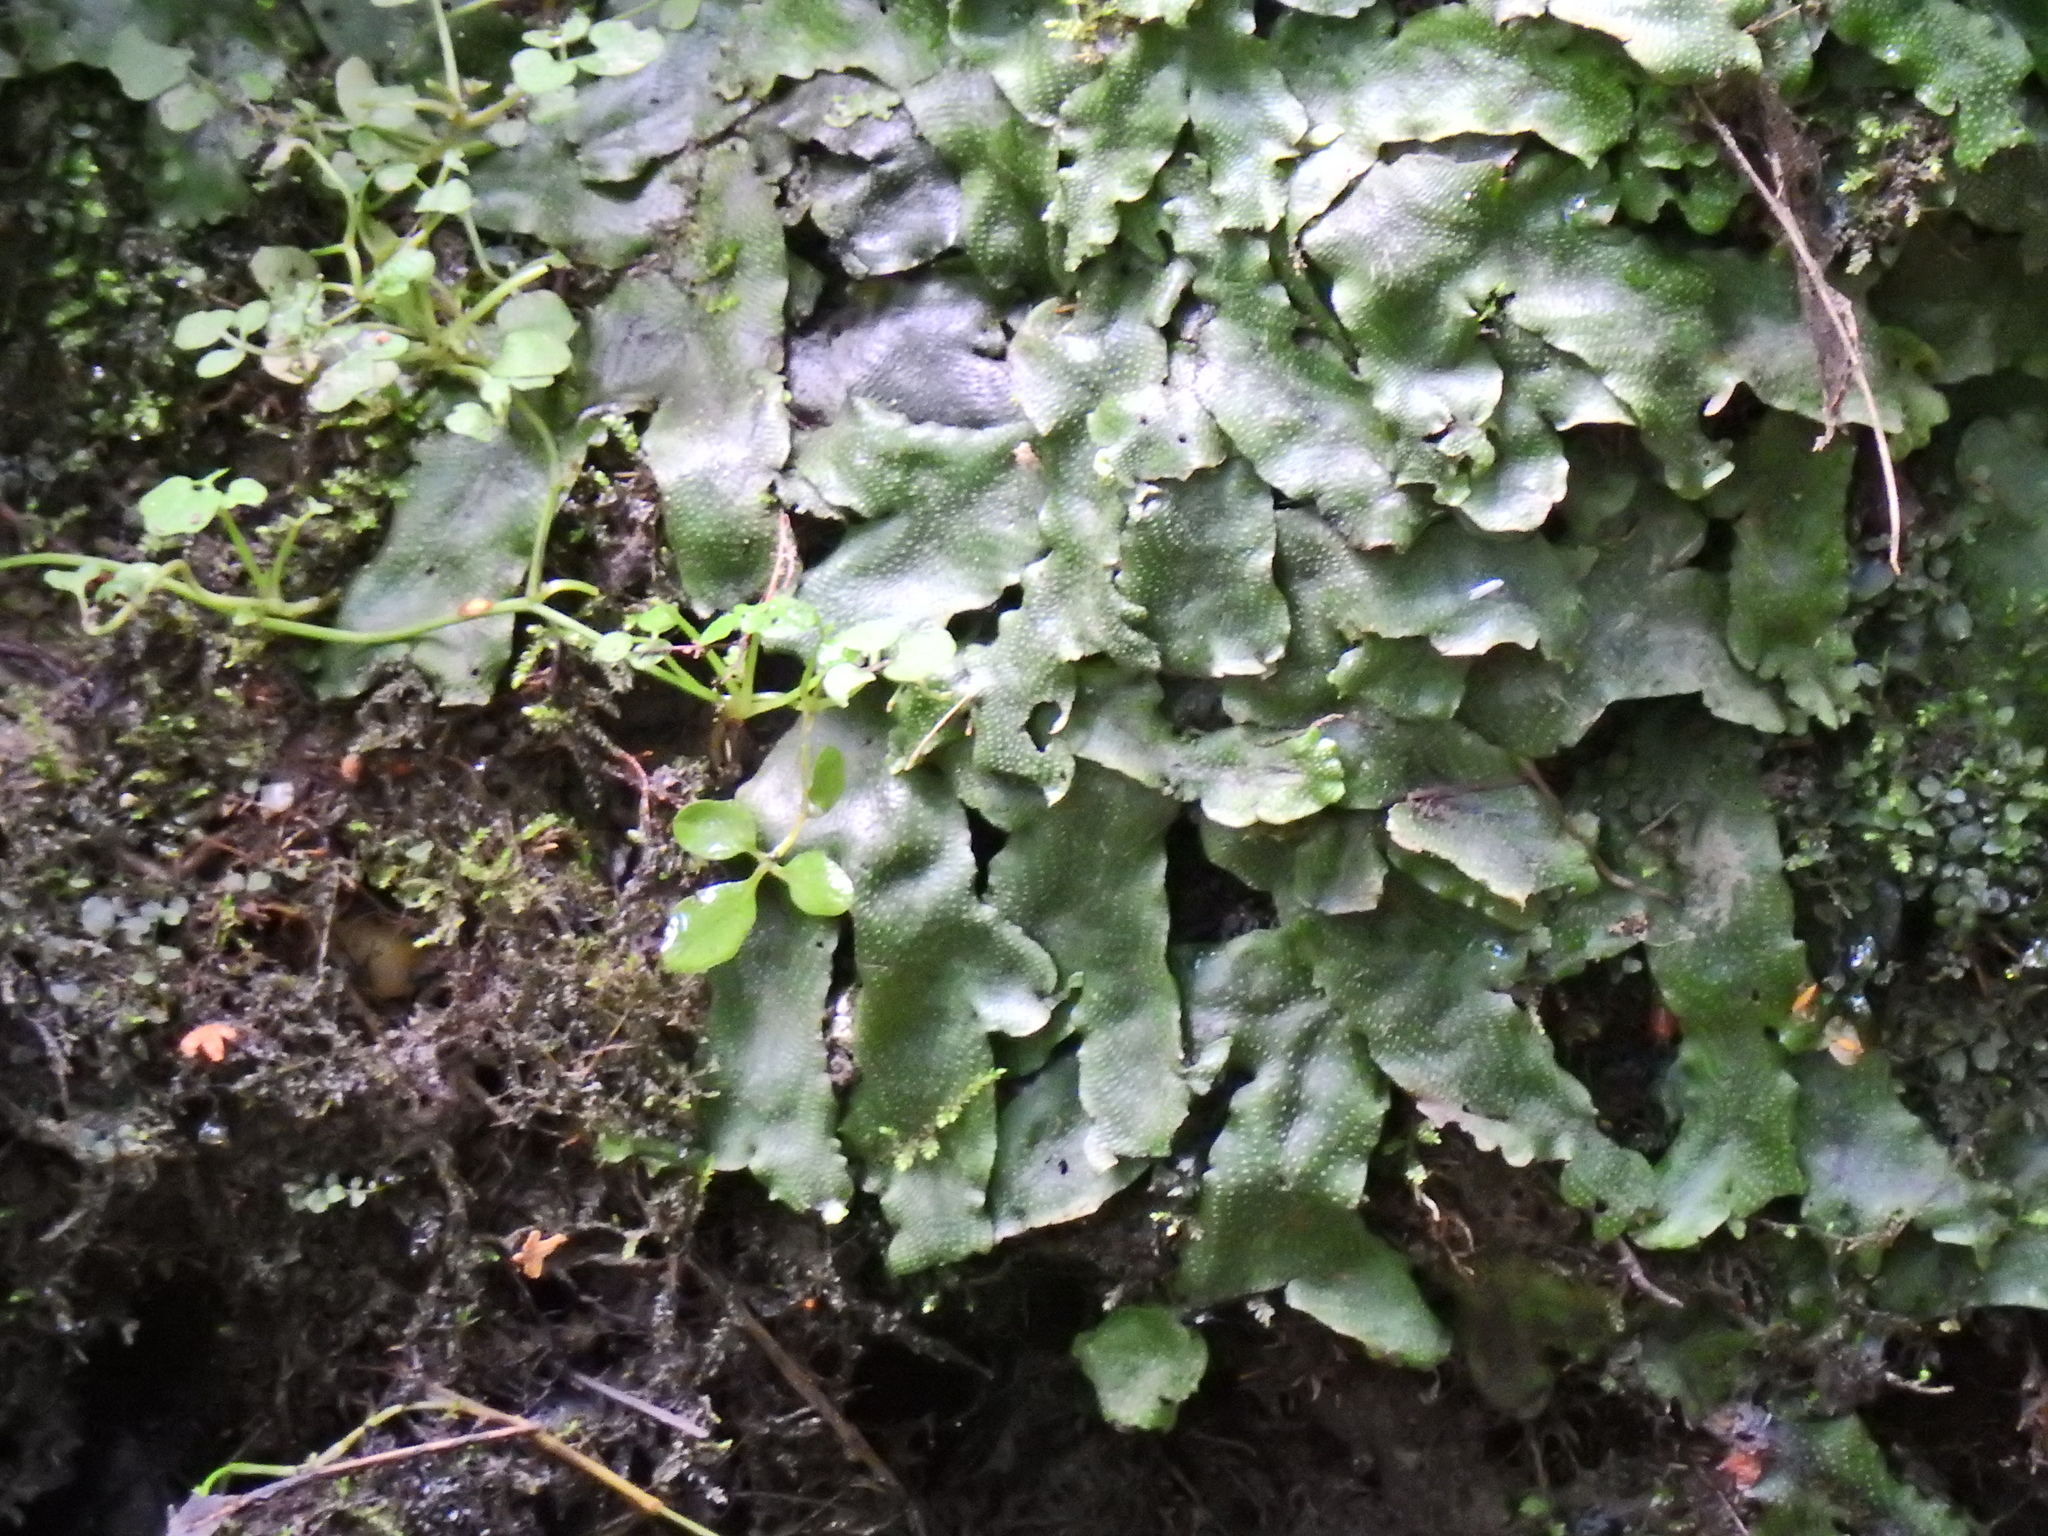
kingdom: Plantae
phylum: Marchantiophyta
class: Marchantiopsida
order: Marchantiales
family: Conocephalaceae
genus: Conocephalum
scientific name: Conocephalum conicum
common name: Great scented liverwort
